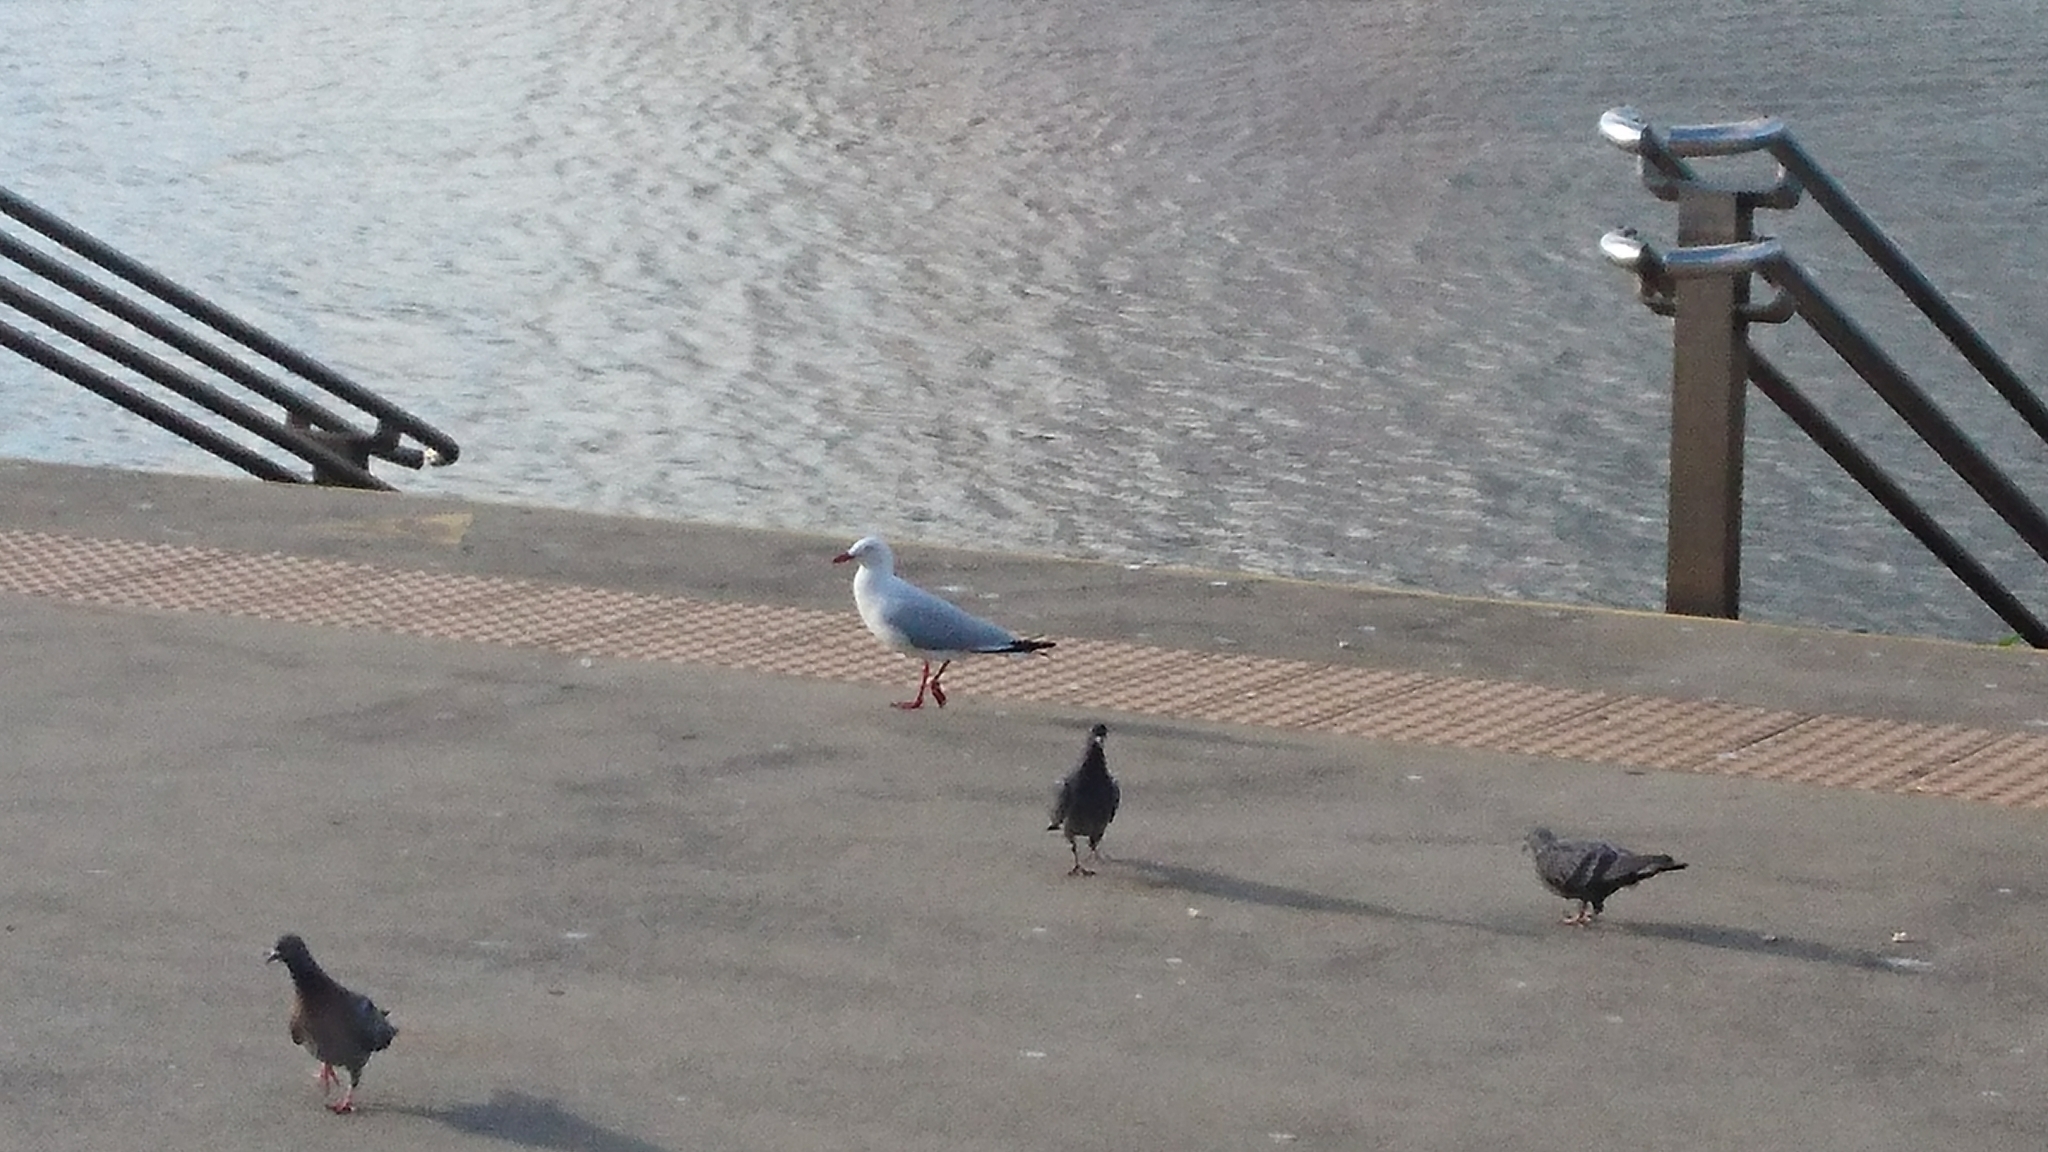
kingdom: Animalia
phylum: Chordata
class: Aves
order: Charadriiformes
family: Laridae
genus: Chroicocephalus
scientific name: Chroicocephalus novaehollandiae
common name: Silver gull
